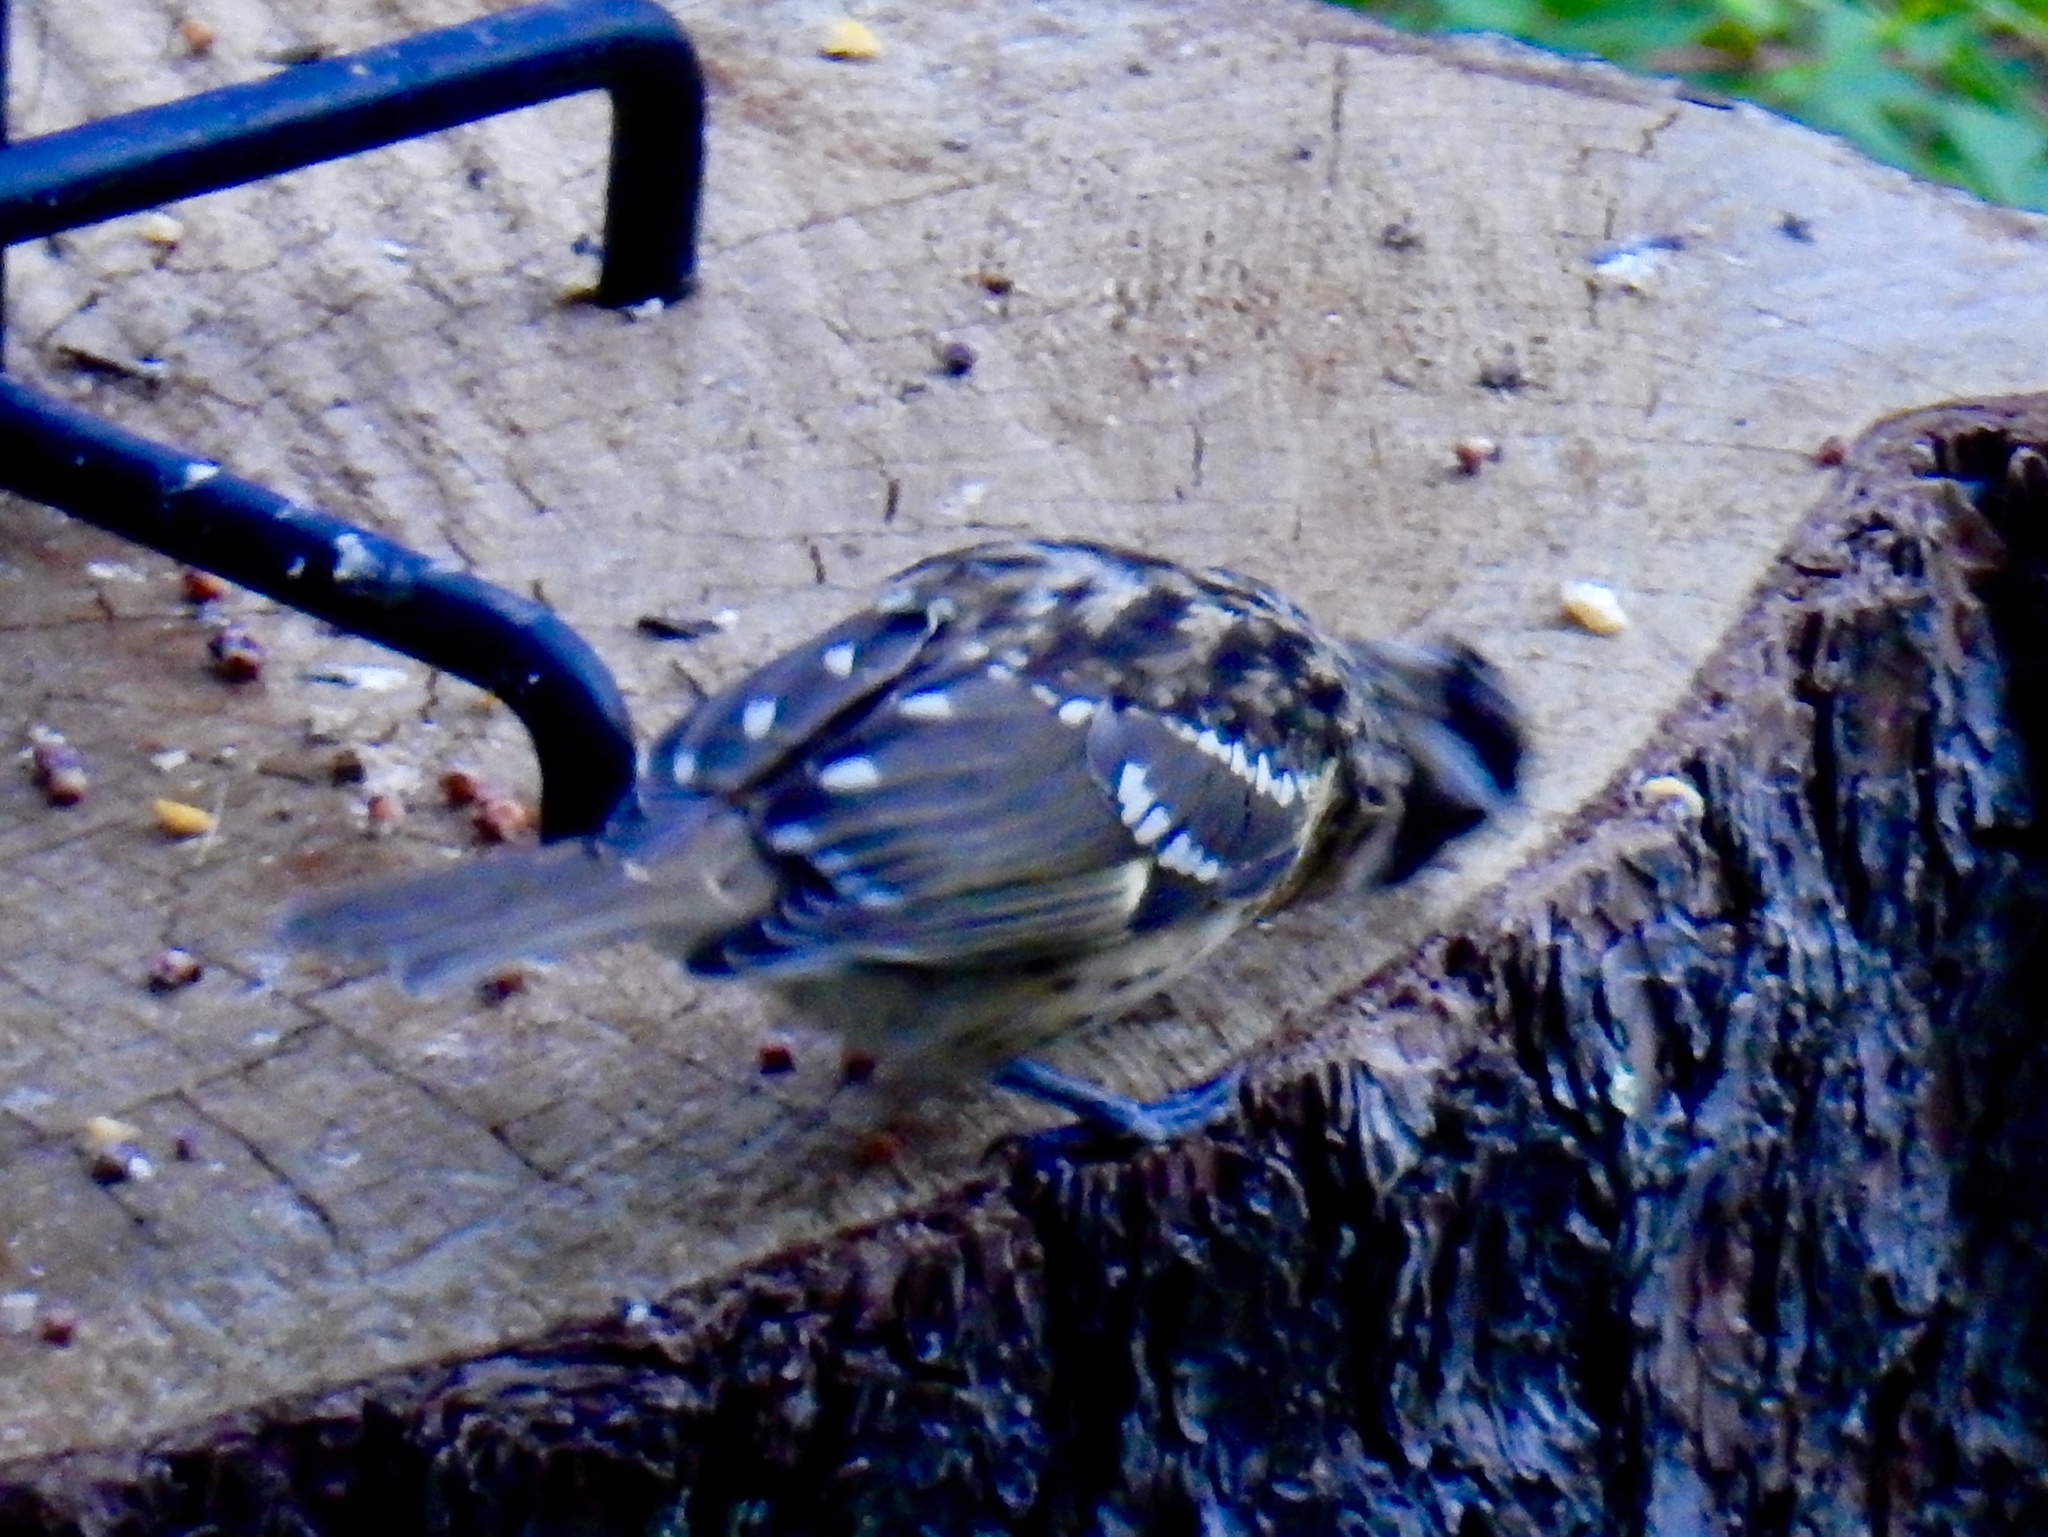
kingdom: Animalia
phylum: Chordata
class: Aves
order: Passeriformes
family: Cardinalidae
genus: Pheucticus
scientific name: Pheucticus melanocephalus
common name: Black-headed grosbeak
